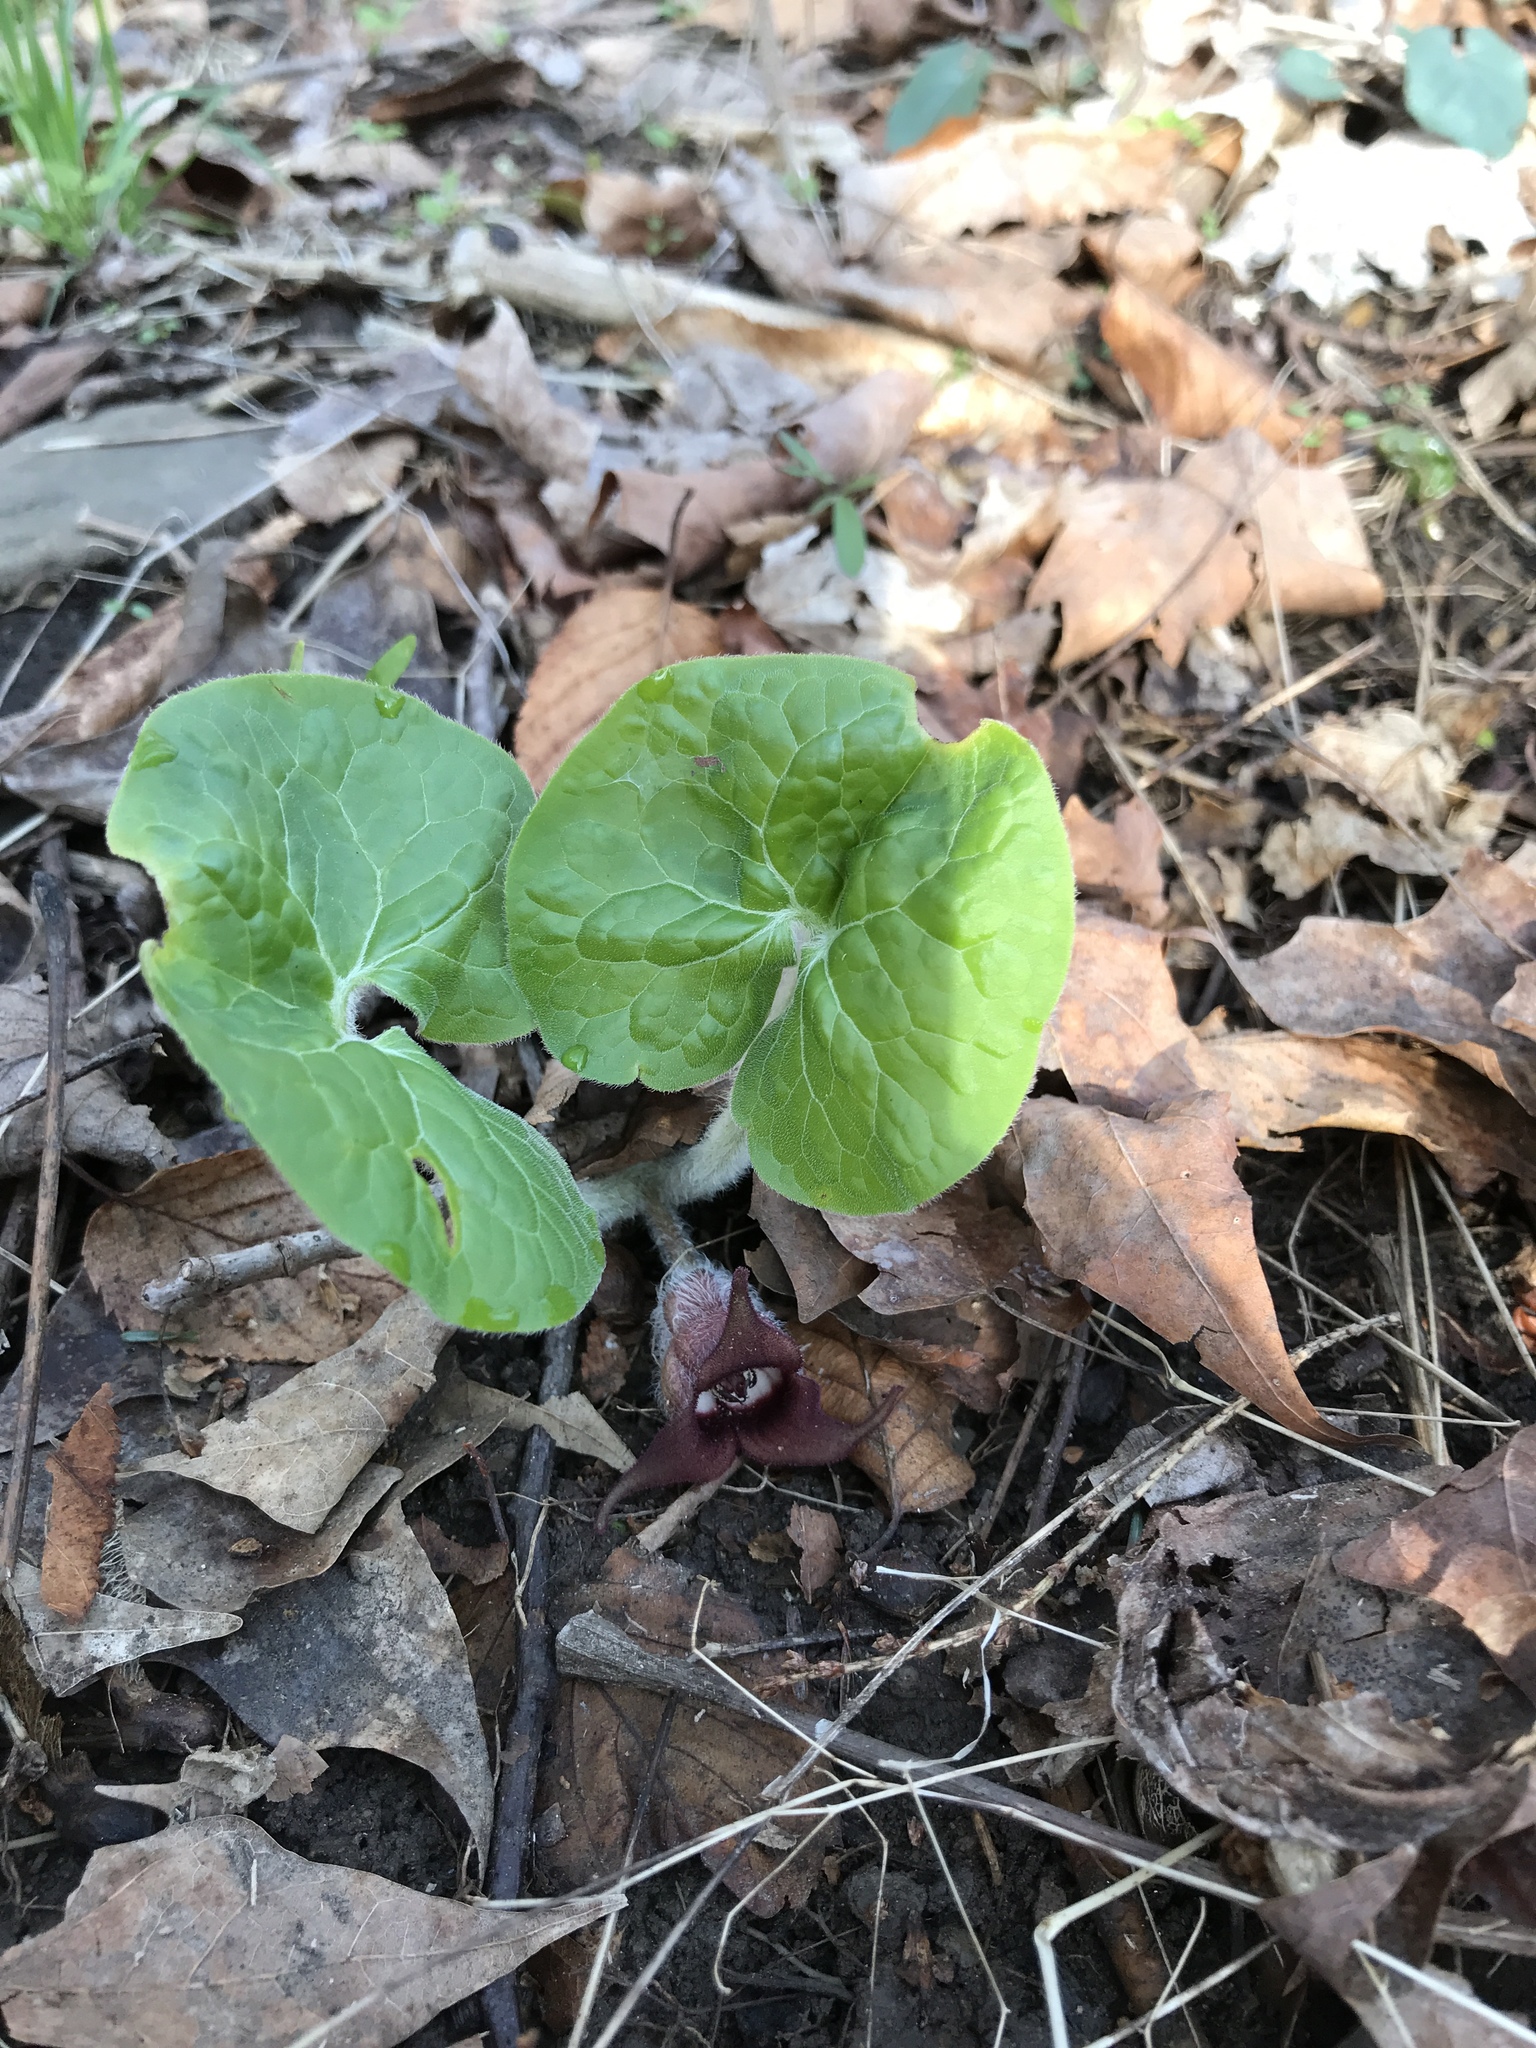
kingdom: Plantae
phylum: Tracheophyta
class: Magnoliopsida
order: Piperales
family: Aristolochiaceae
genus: Asarum
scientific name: Asarum canadense
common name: Wild ginger
